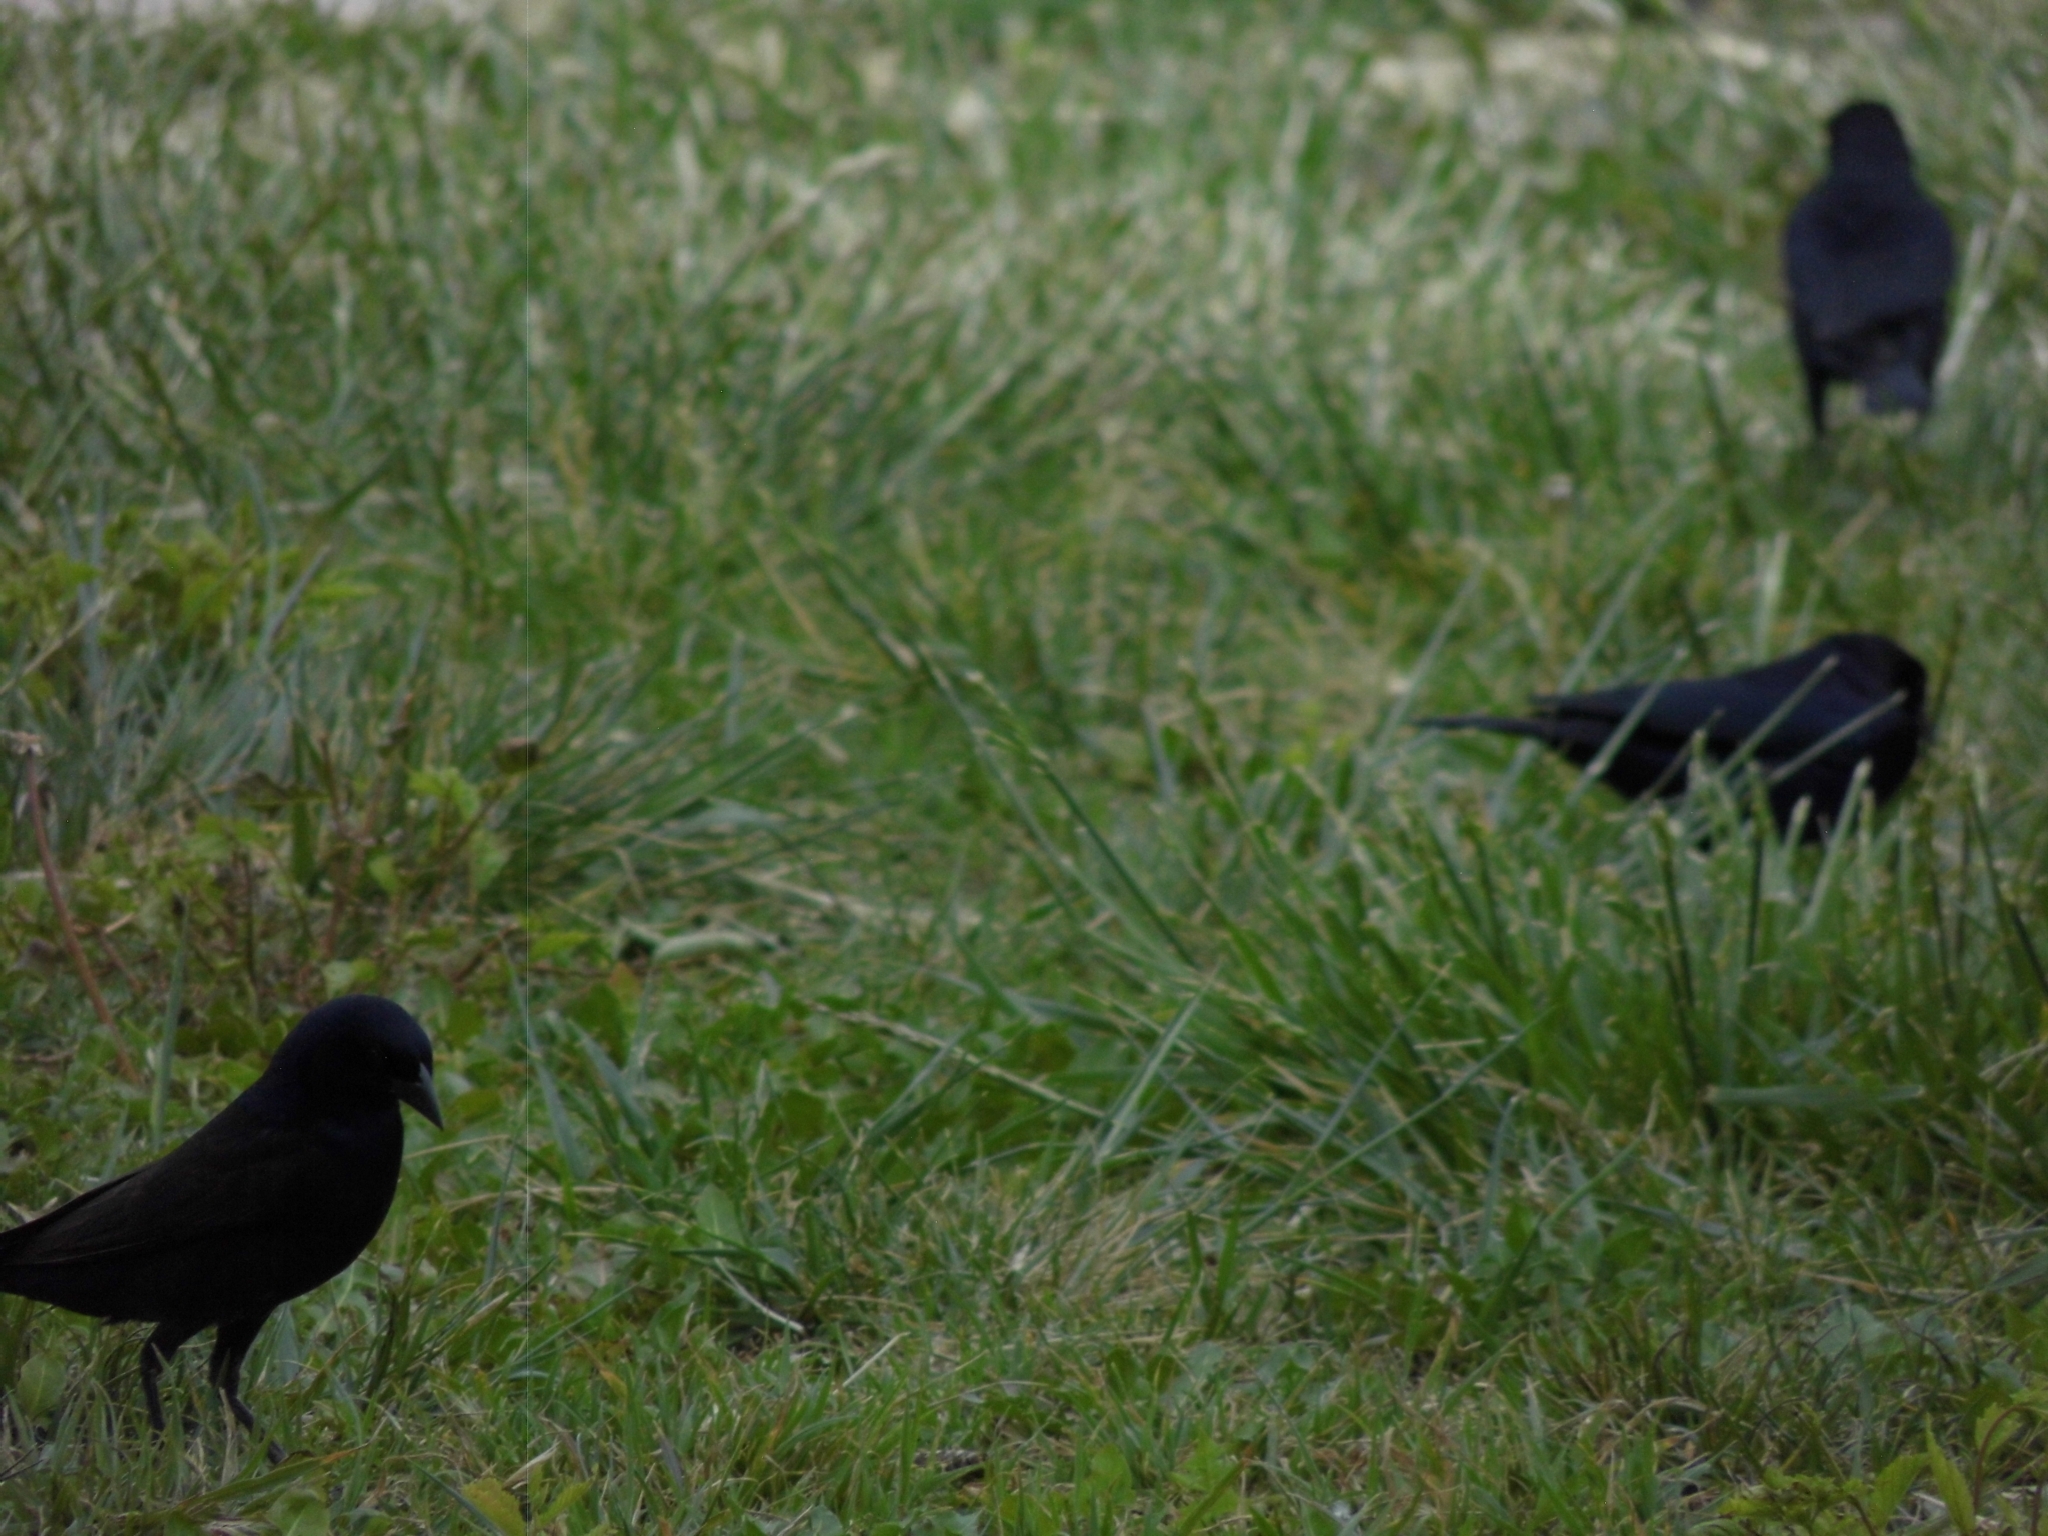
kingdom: Animalia
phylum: Chordata
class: Aves
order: Passeriformes
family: Icteridae
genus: Molothrus
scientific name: Molothrus bonariensis
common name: Shiny cowbird
